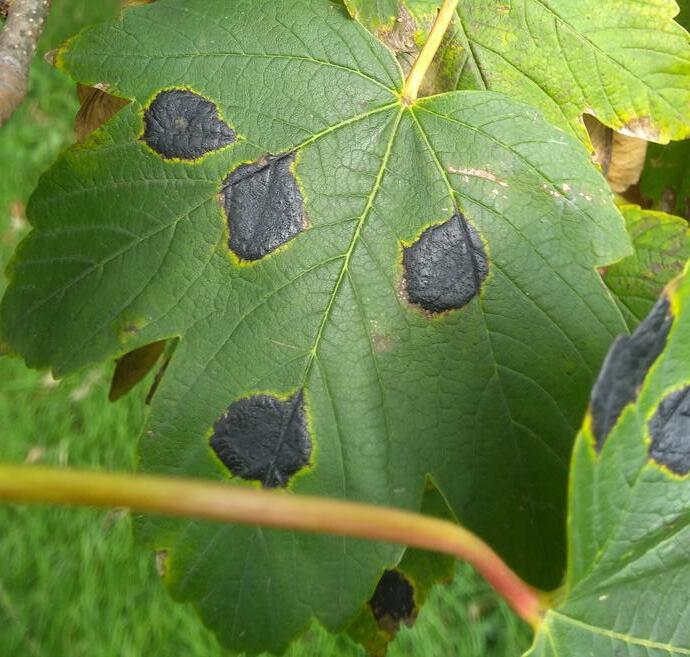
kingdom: Fungi
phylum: Ascomycota
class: Leotiomycetes
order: Rhytismatales
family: Rhytismataceae
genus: Rhytisma
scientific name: Rhytisma acerinum
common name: European tar spot
